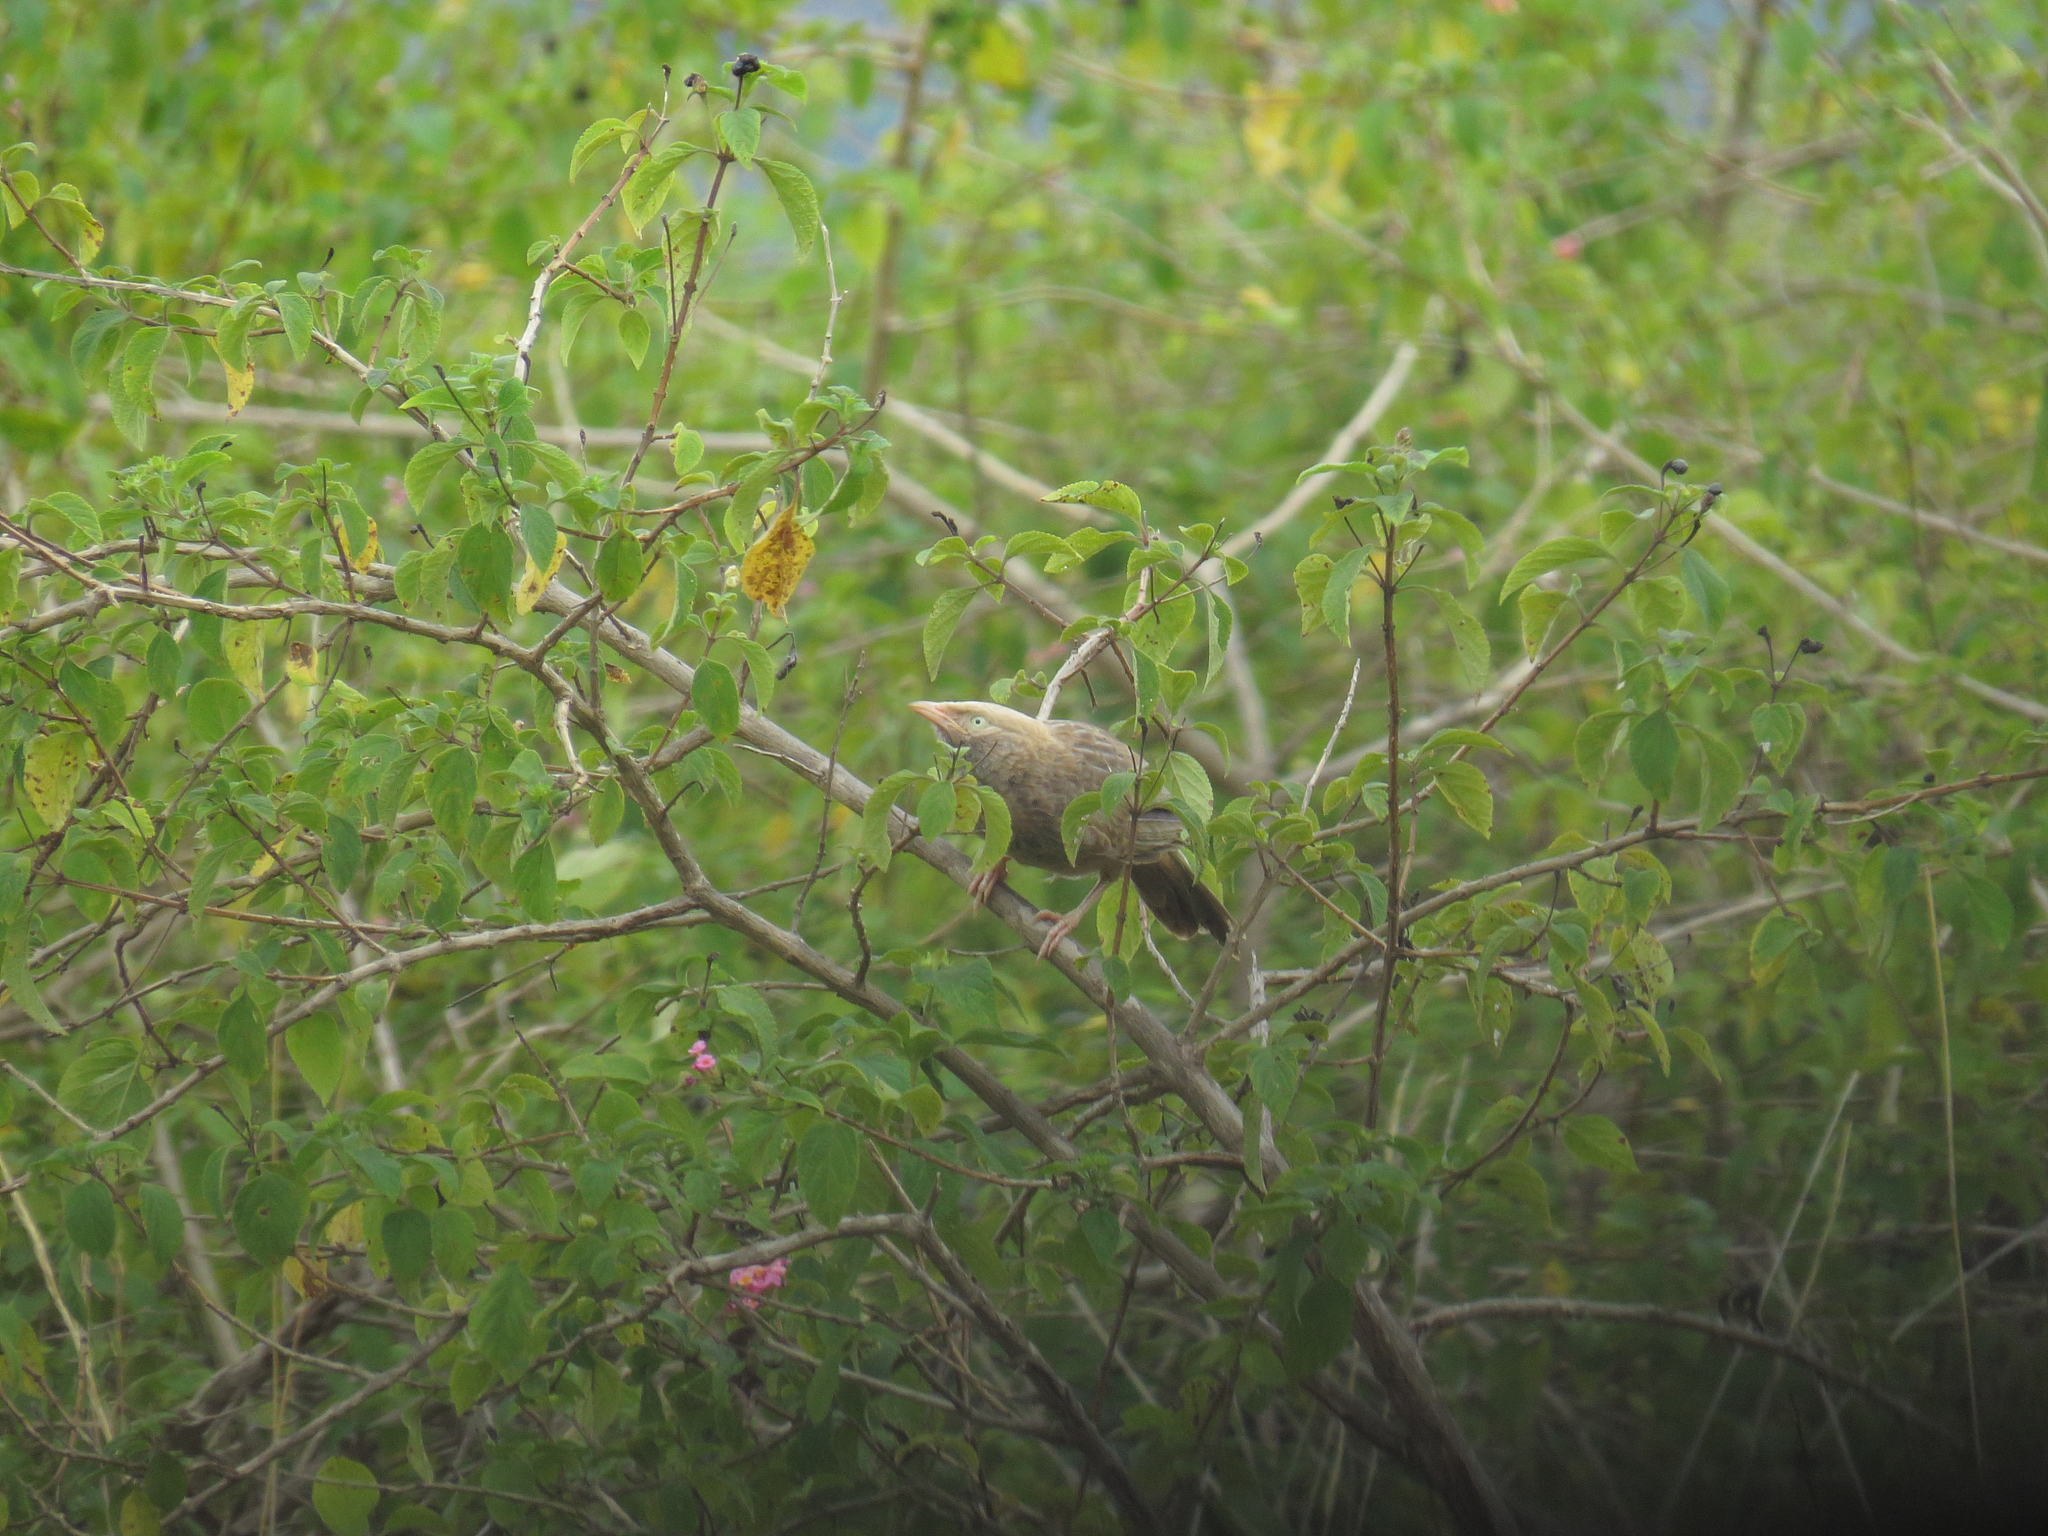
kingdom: Animalia
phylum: Chordata
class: Aves
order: Passeriformes
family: Leiothrichidae
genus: Turdoides
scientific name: Turdoides affinis
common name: Yellow-billed babbler
